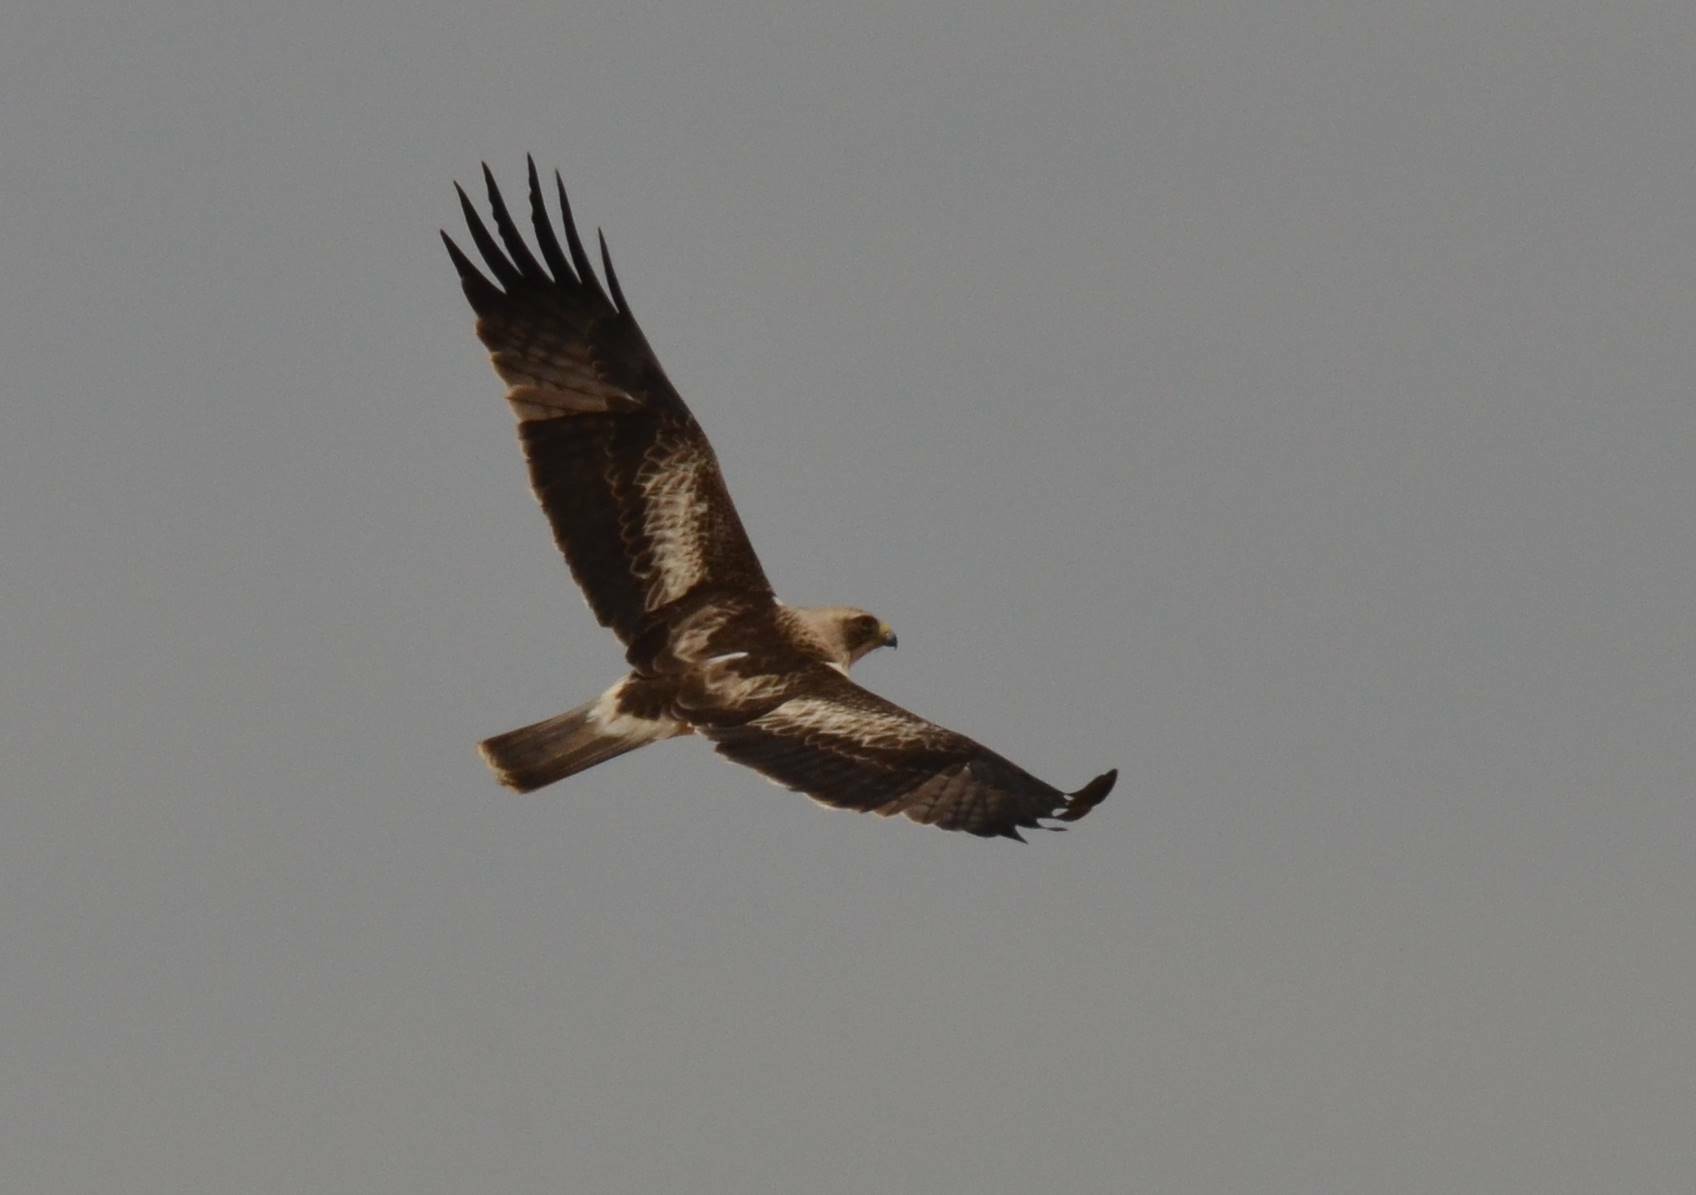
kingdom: Animalia
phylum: Chordata
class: Aves
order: Accipitriformes
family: Accipitridae
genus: Hieraaetus
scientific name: Hieraaetus pennatus
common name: Booted eagle
